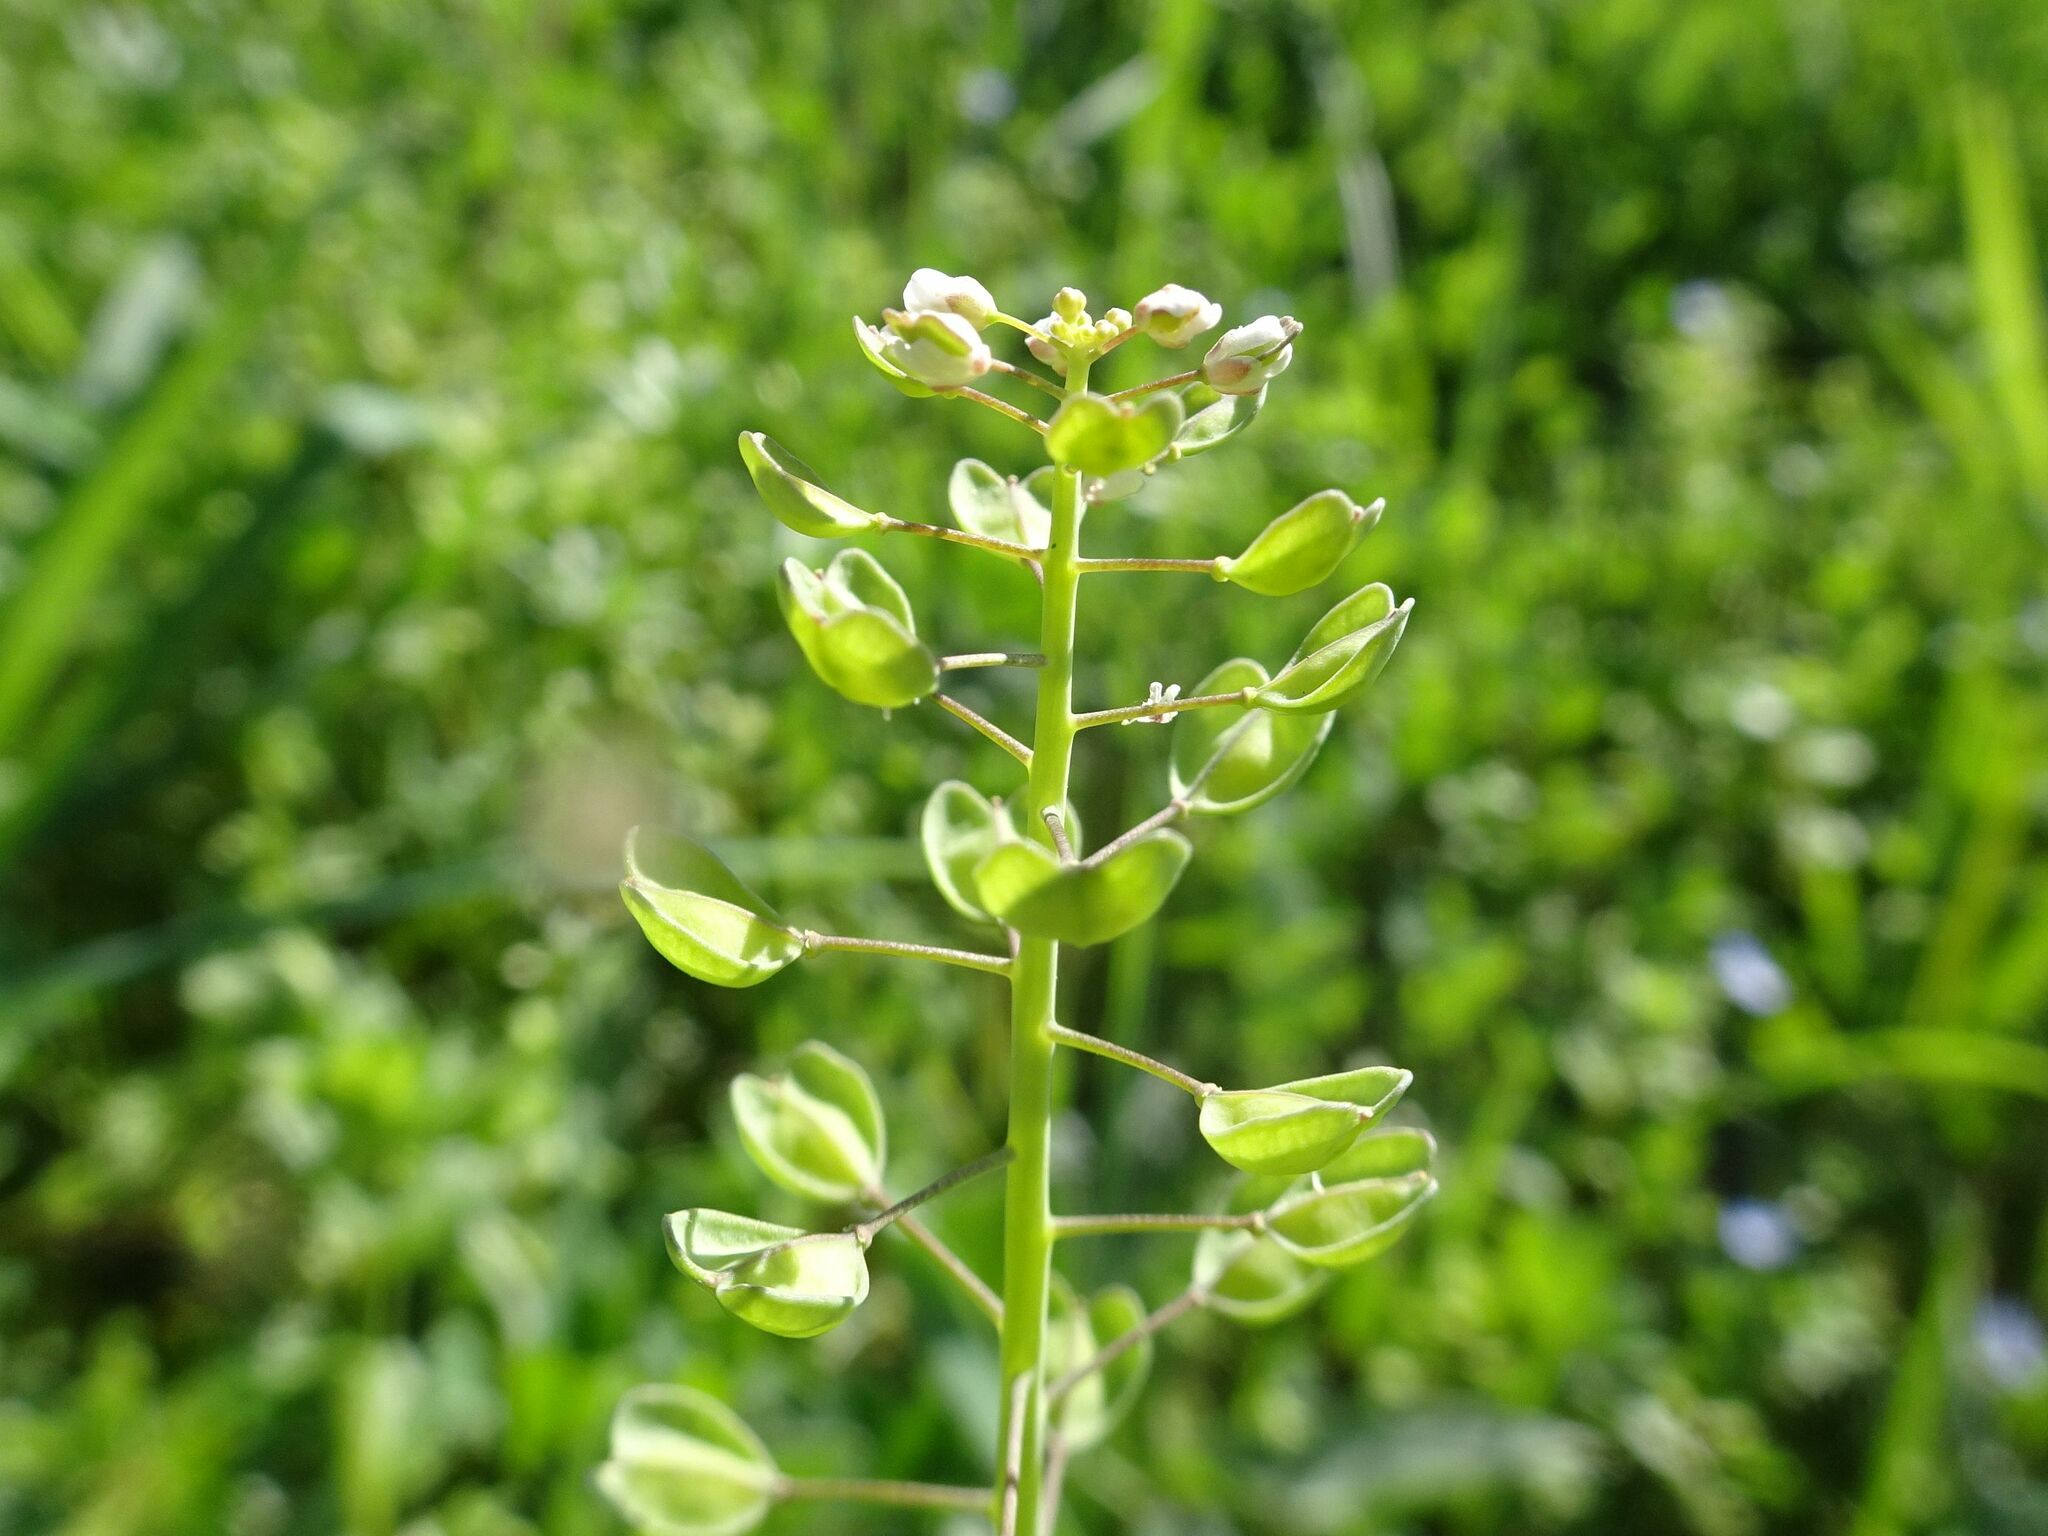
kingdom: Plantae
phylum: Tracheophyta
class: Magnoliopsida
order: Brassicales
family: Brassicaceae
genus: Noccaea
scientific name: Noccaea perfoliata
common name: Perfoliate pennycress
